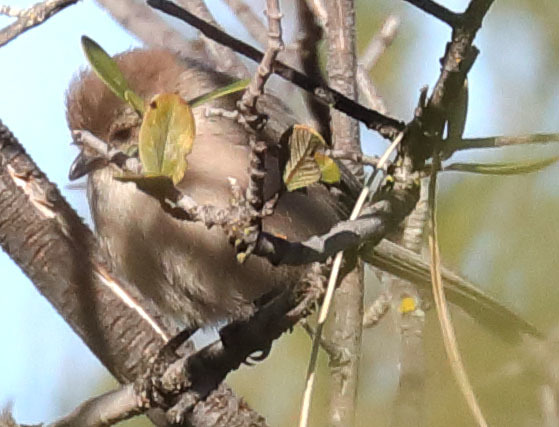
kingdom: Animalia
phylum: Chordata
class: Aves
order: Passeriformes
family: Aegithalidae
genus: Psaltriparus
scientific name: Psaltriparus minimus
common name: American bushtit
